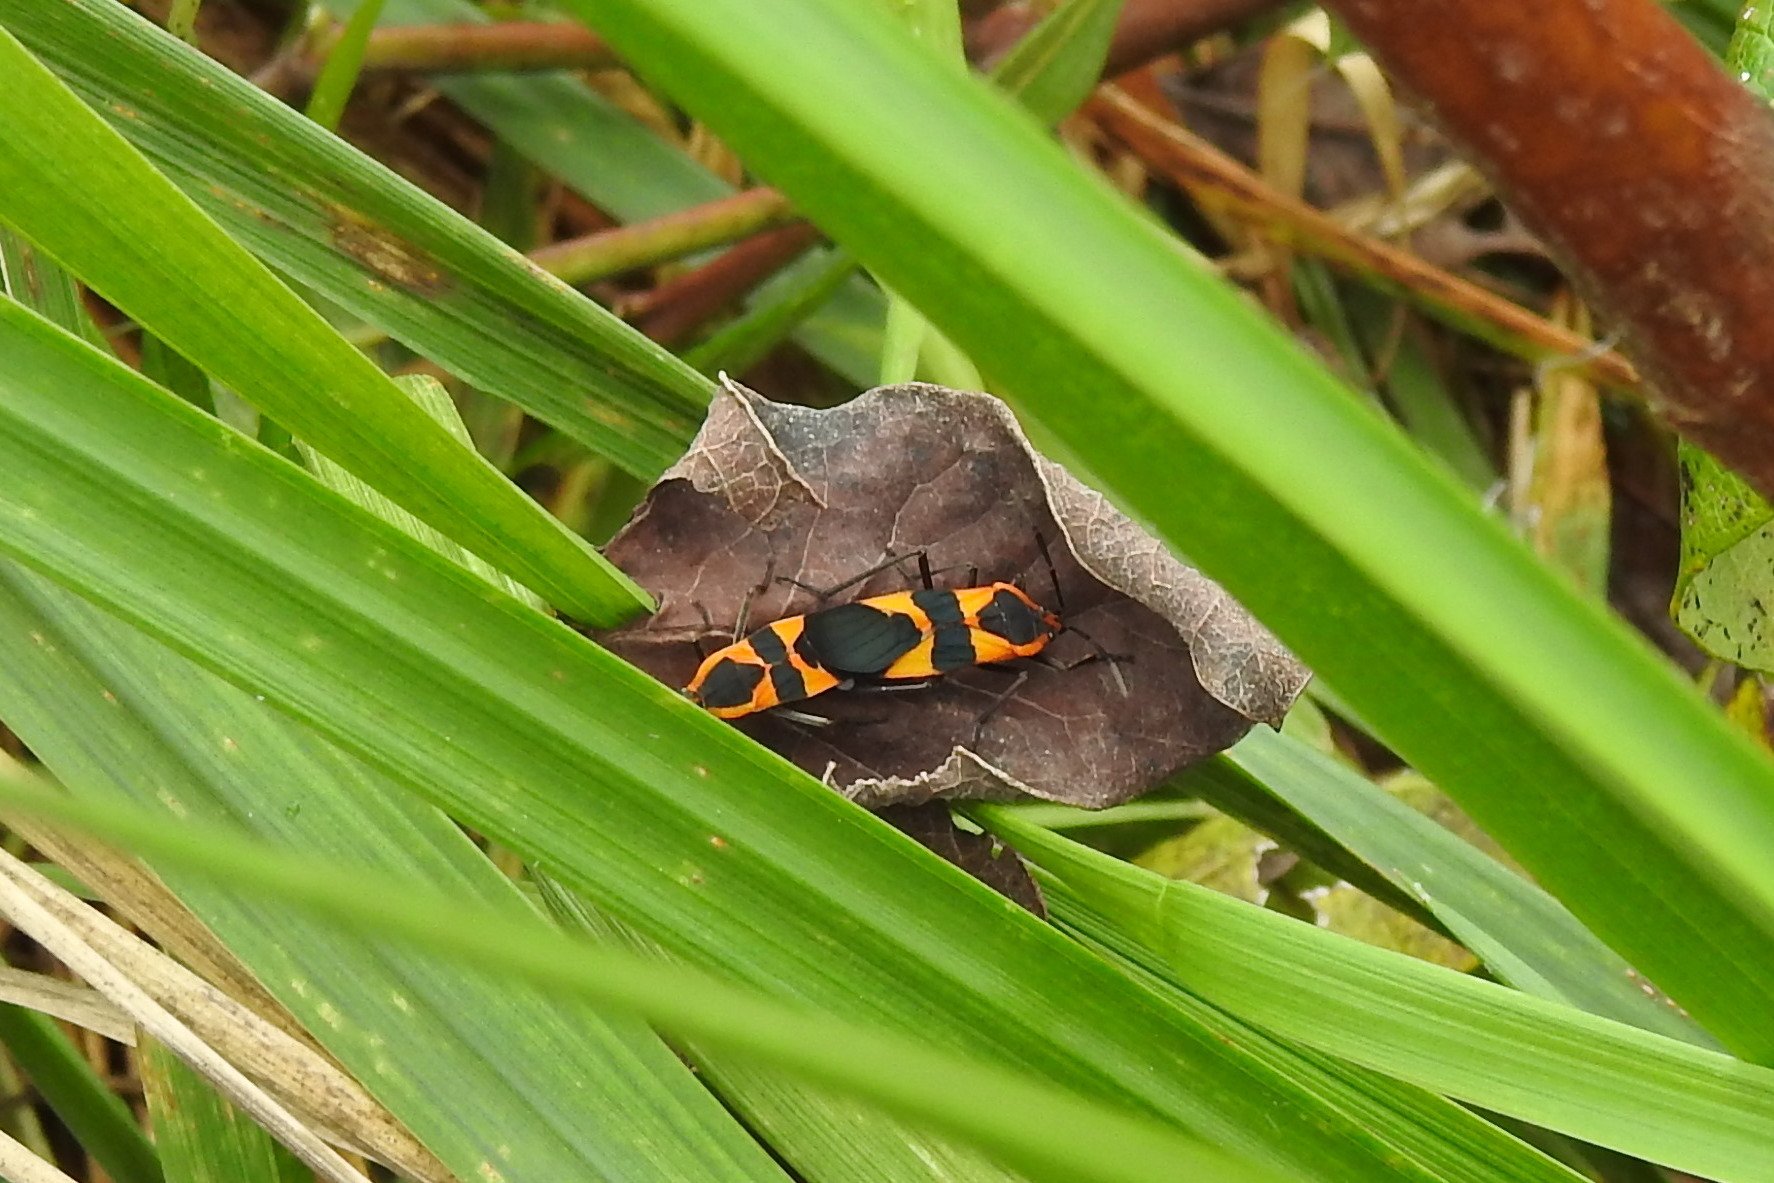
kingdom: Animalia
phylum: Arthropoda
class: Insecta
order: Hemiptera
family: Lygaeidae
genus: Oncopeltus
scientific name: Oncopeltus fasciatus
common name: Large milkweed bug
